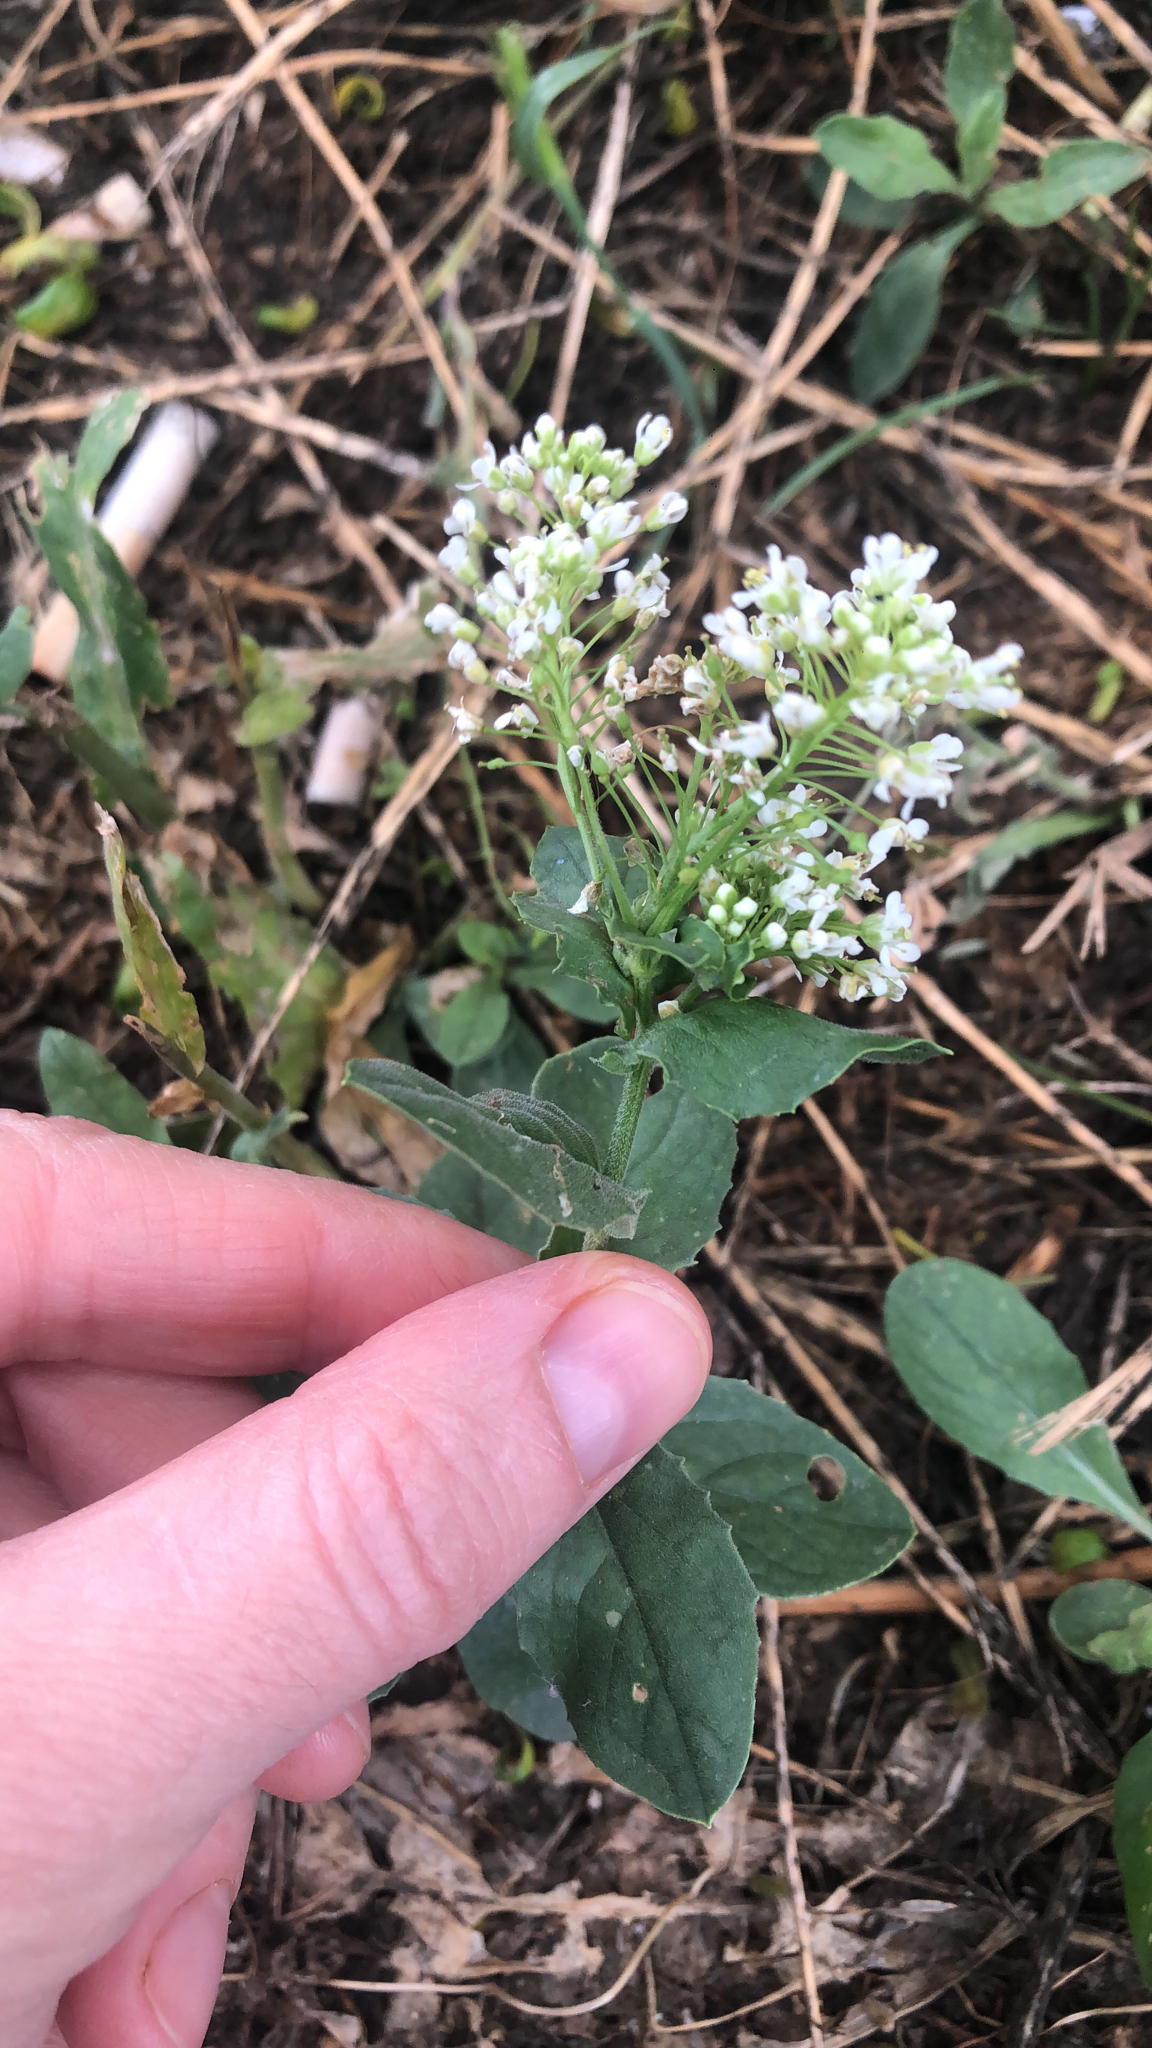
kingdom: Plantae
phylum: Tracheophyta
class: Magnoliopsida
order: Brassicales
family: Brassicaceae
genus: Lepidium
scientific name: Lepidium draba
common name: Hoary cress
